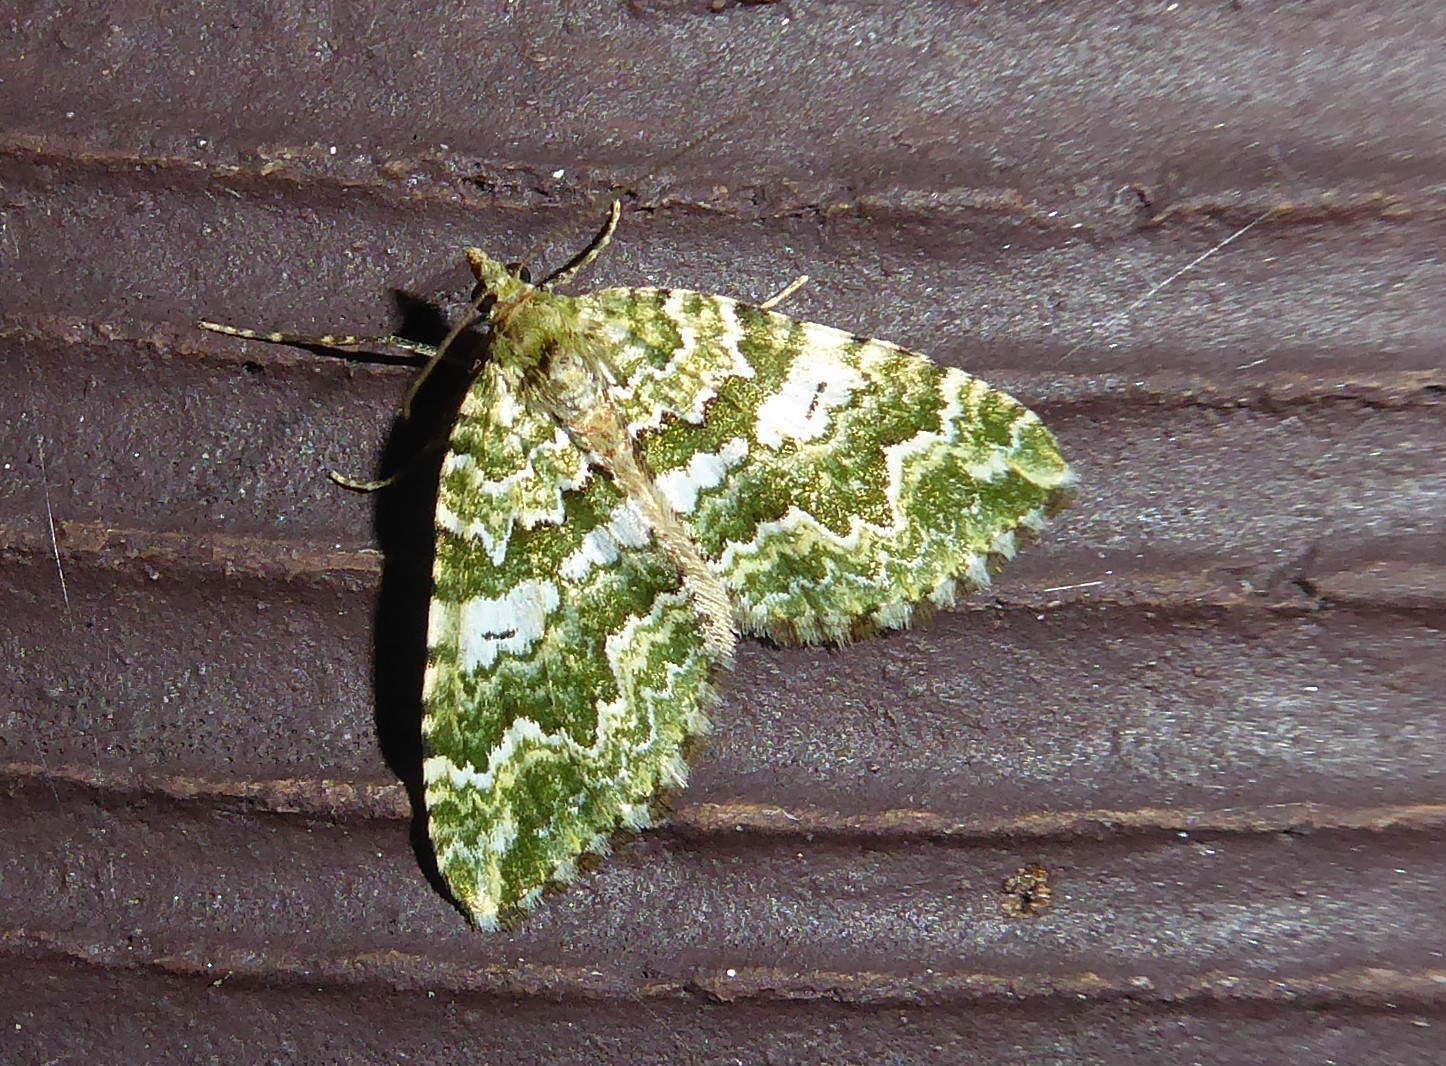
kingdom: Animalia
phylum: Arthropoda
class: Insecta
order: Lepidoptera
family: Geometridae
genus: Asaphodes
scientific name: Asaphodes beata
